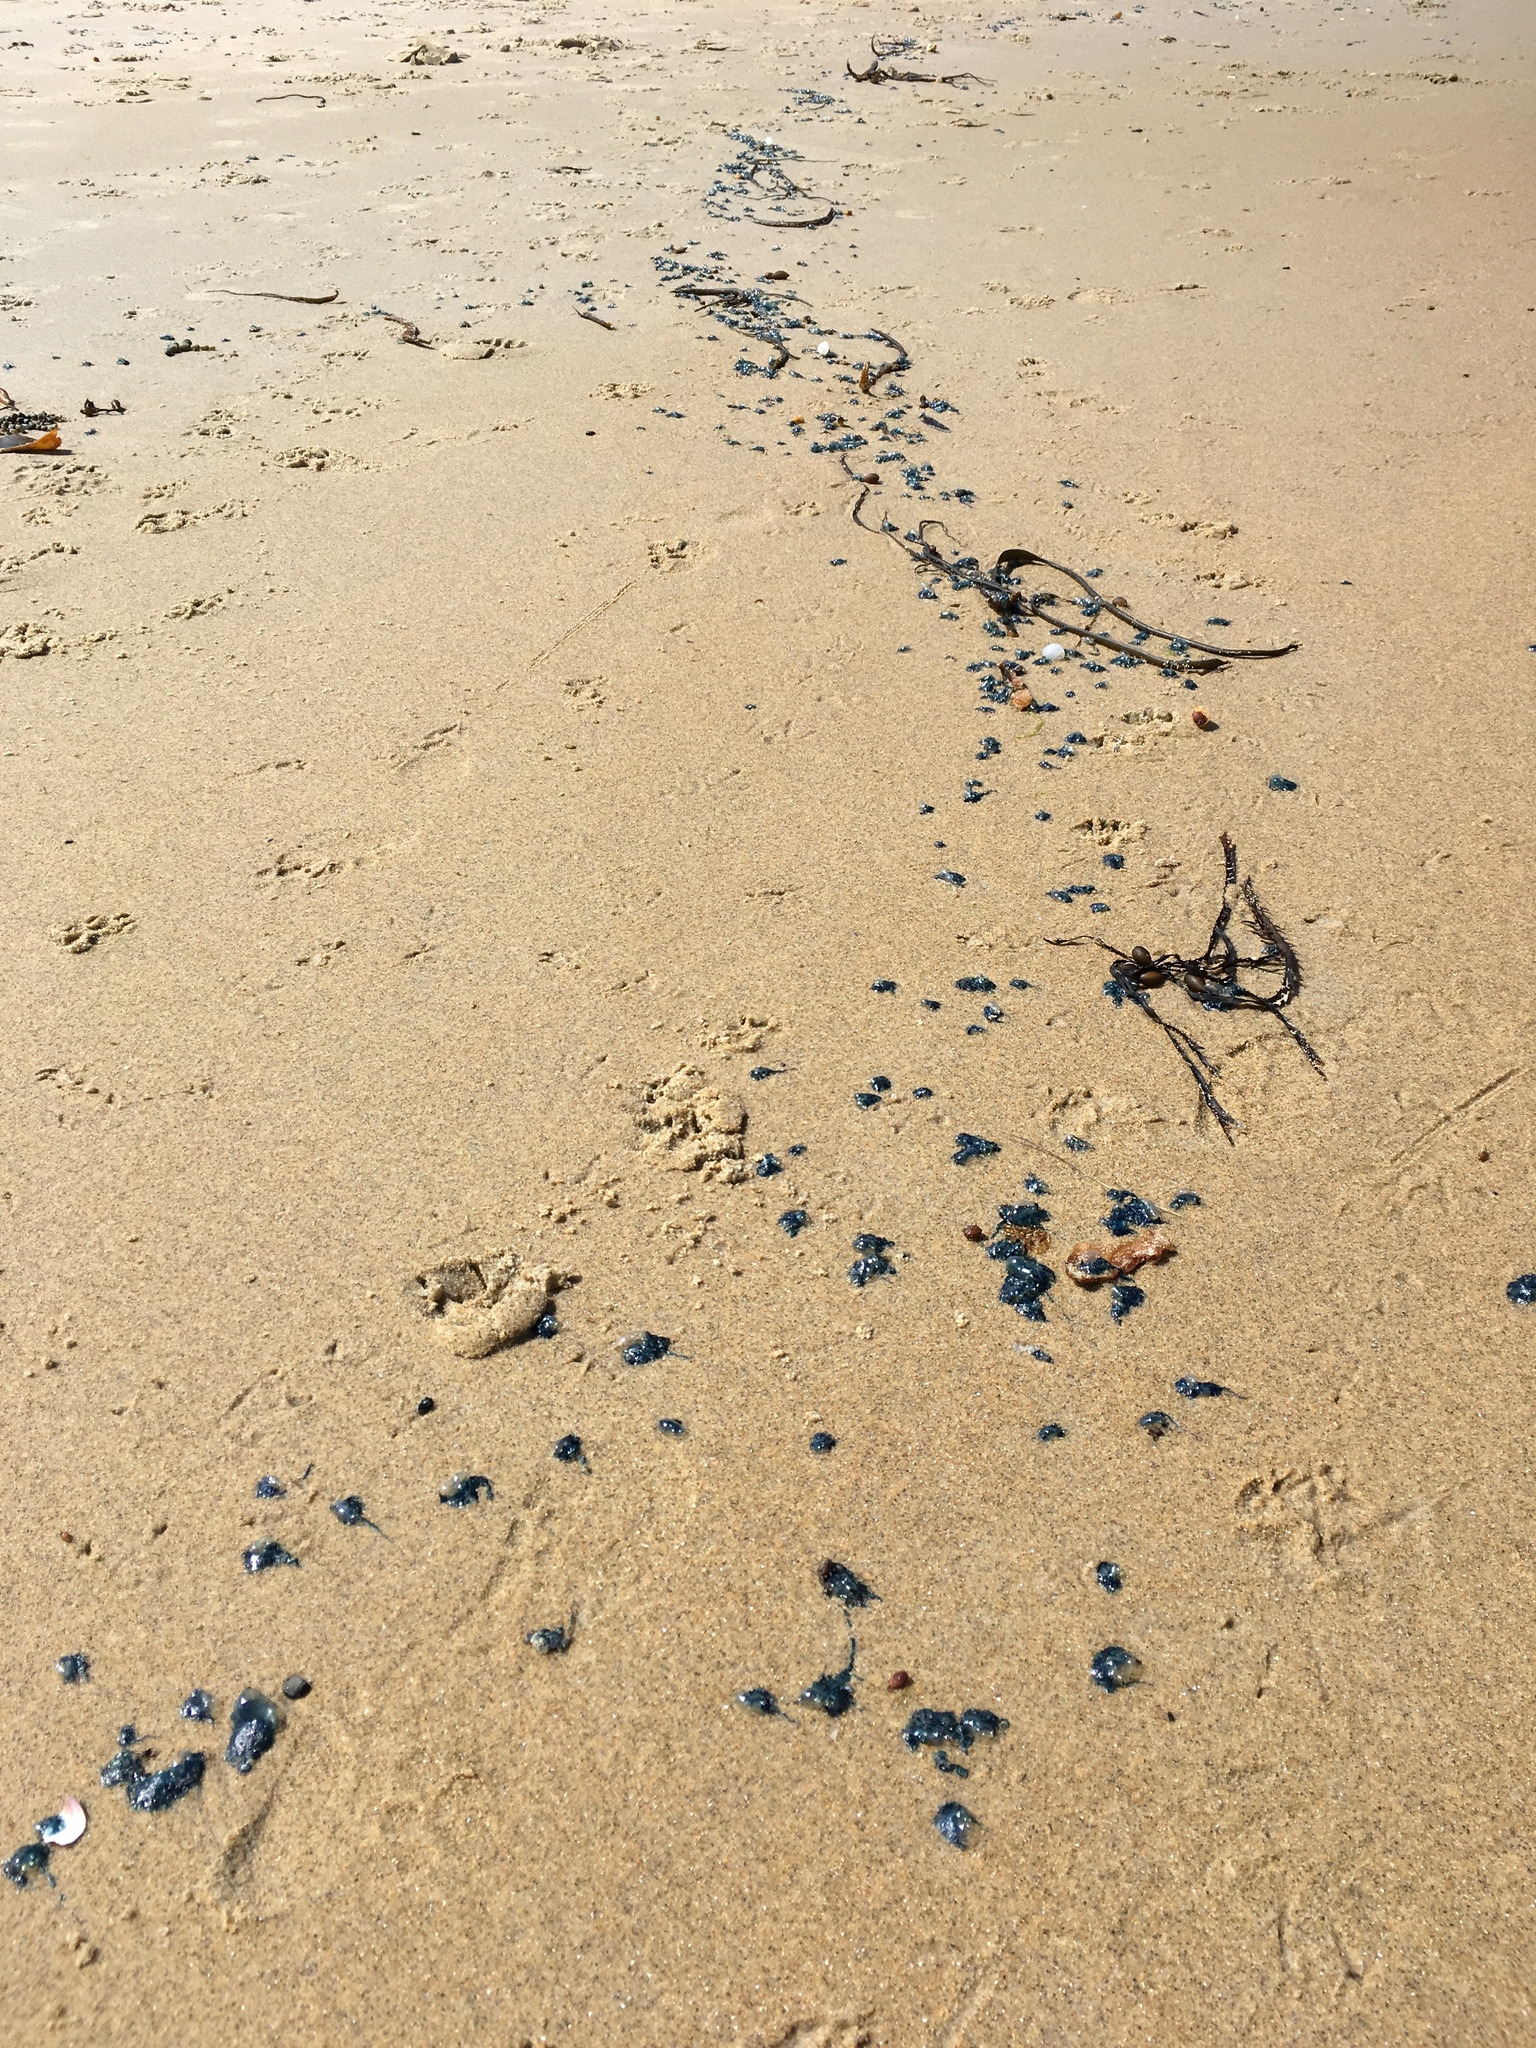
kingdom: Animalia
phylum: Cnidaria
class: Hydrozoa
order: Siphonophorae
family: Physaliidae
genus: Physalia
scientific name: Physalia physalis
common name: Portuguese man-of-war
